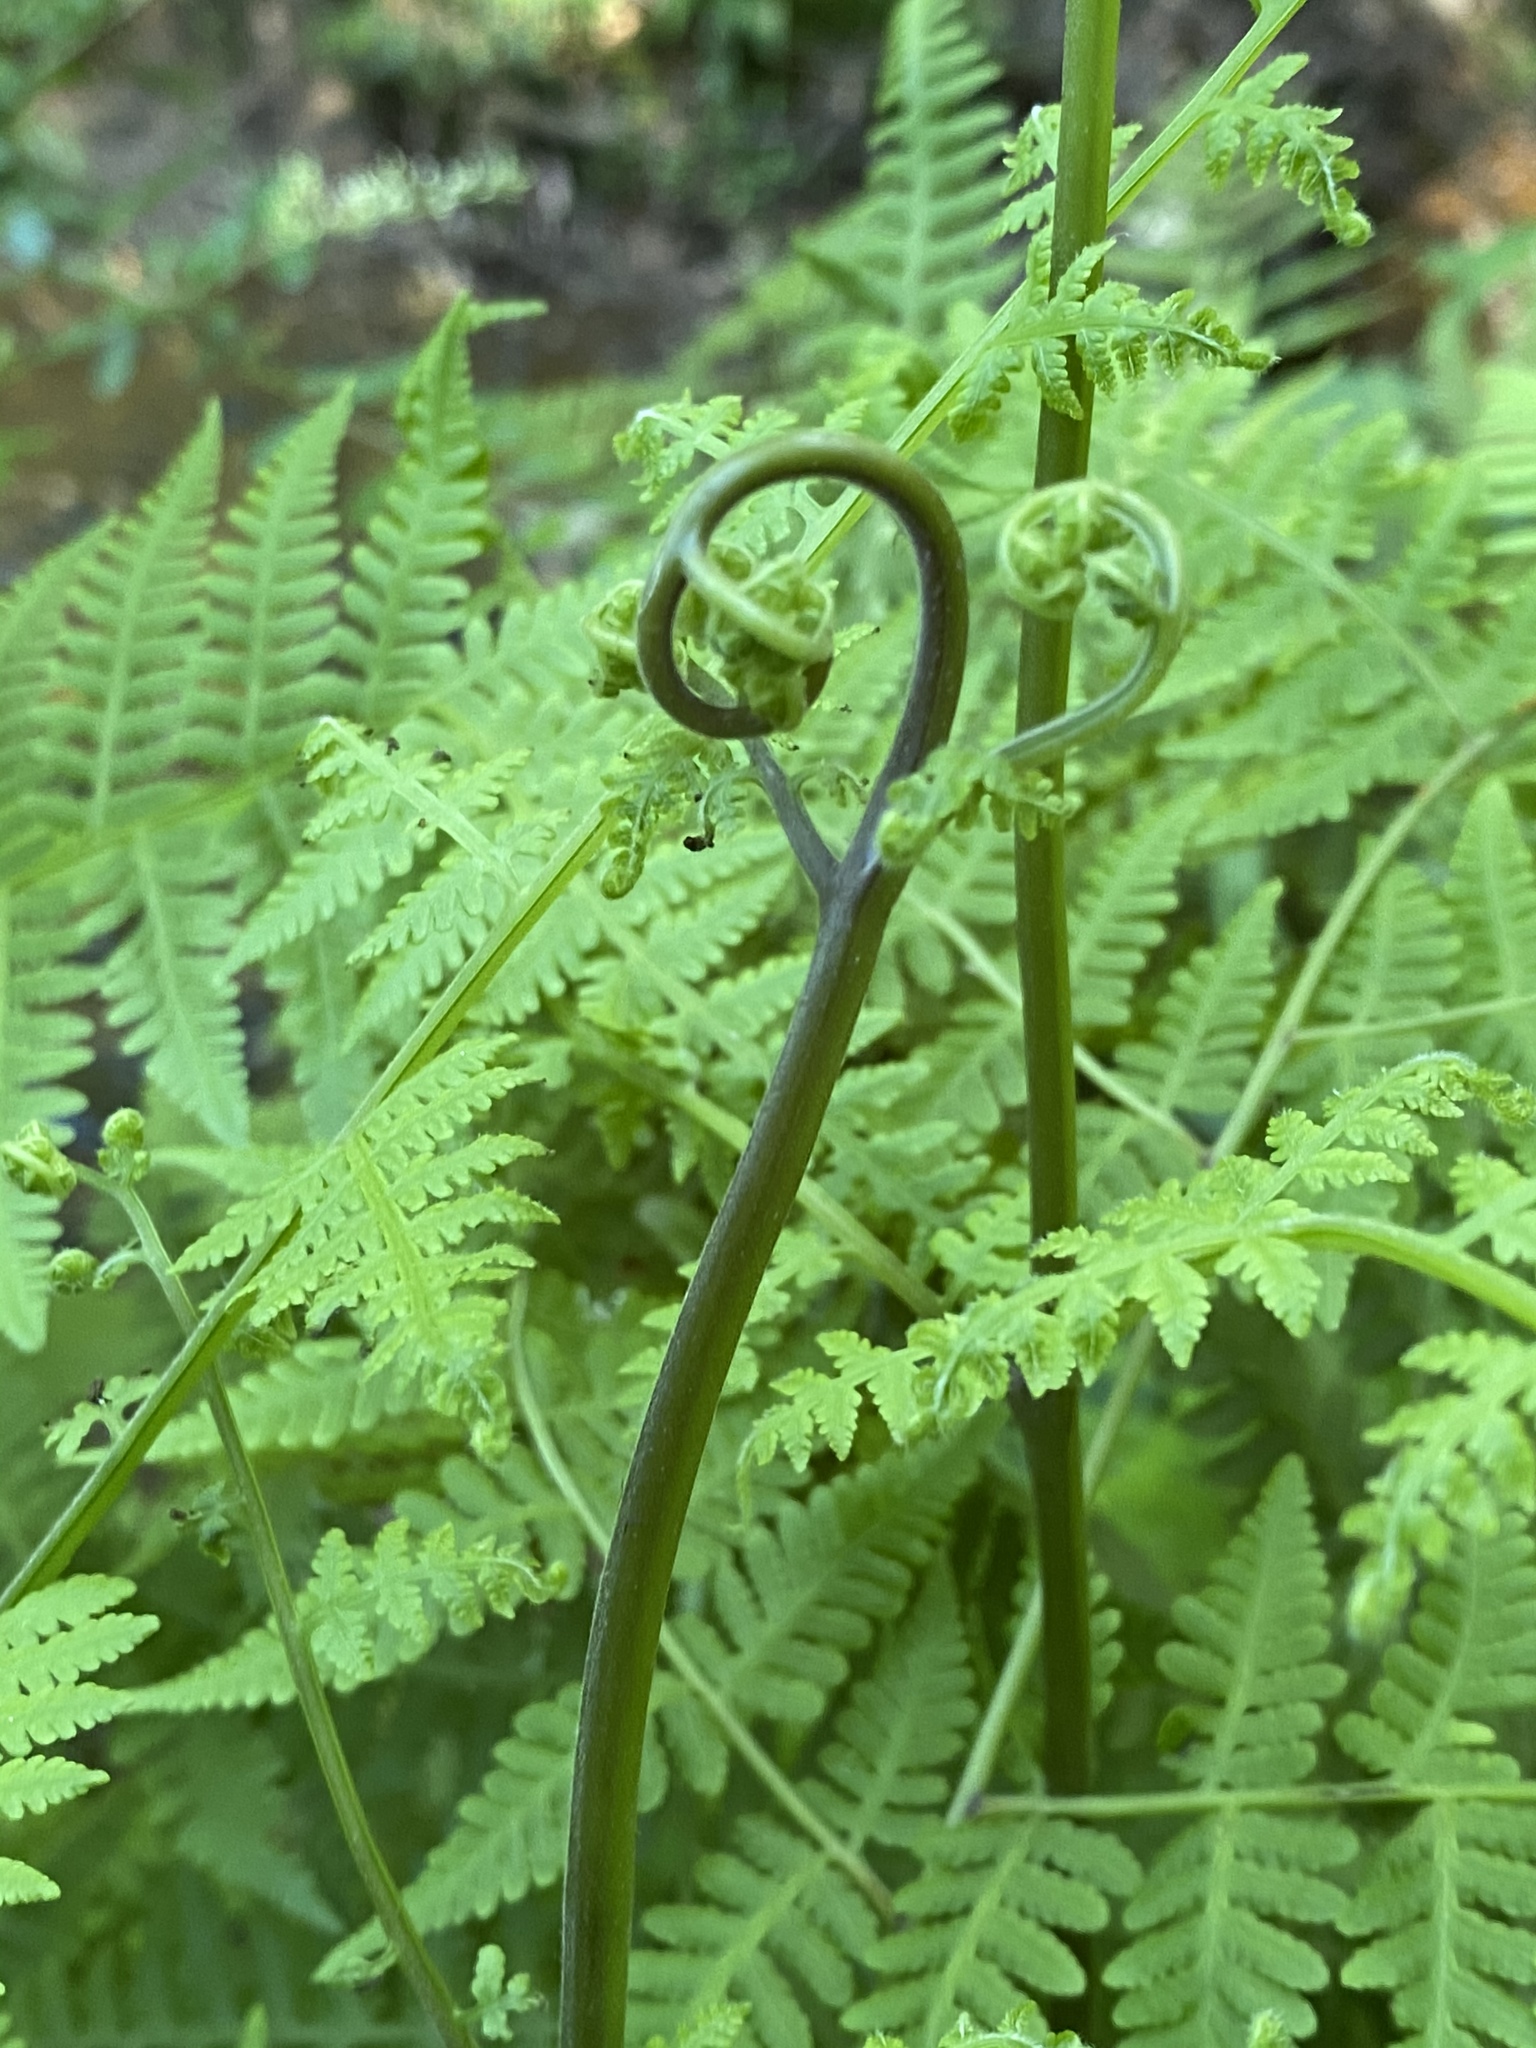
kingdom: Plantae
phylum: Tracheophyta
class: Polypodiopsida
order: Polypodiales
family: Thelypteridaceae
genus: Macrothelypteris
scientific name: Macrothelypteris torresiana
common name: Swordfern
